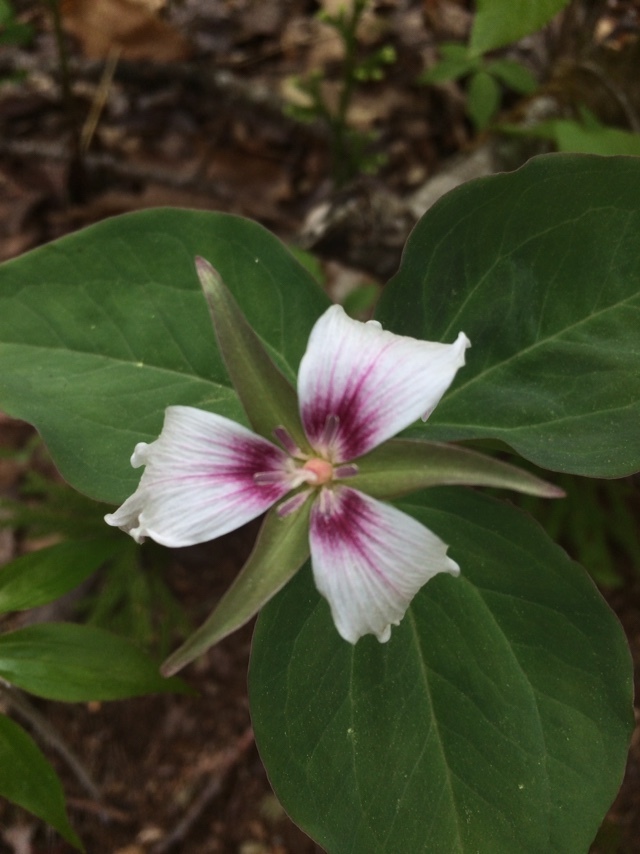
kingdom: Plantae
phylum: Tracheophyta
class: Liliopsida
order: Liliales
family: Melanthiaceae
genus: Trillium
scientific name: Trillium undulatum
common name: Paint trillium
